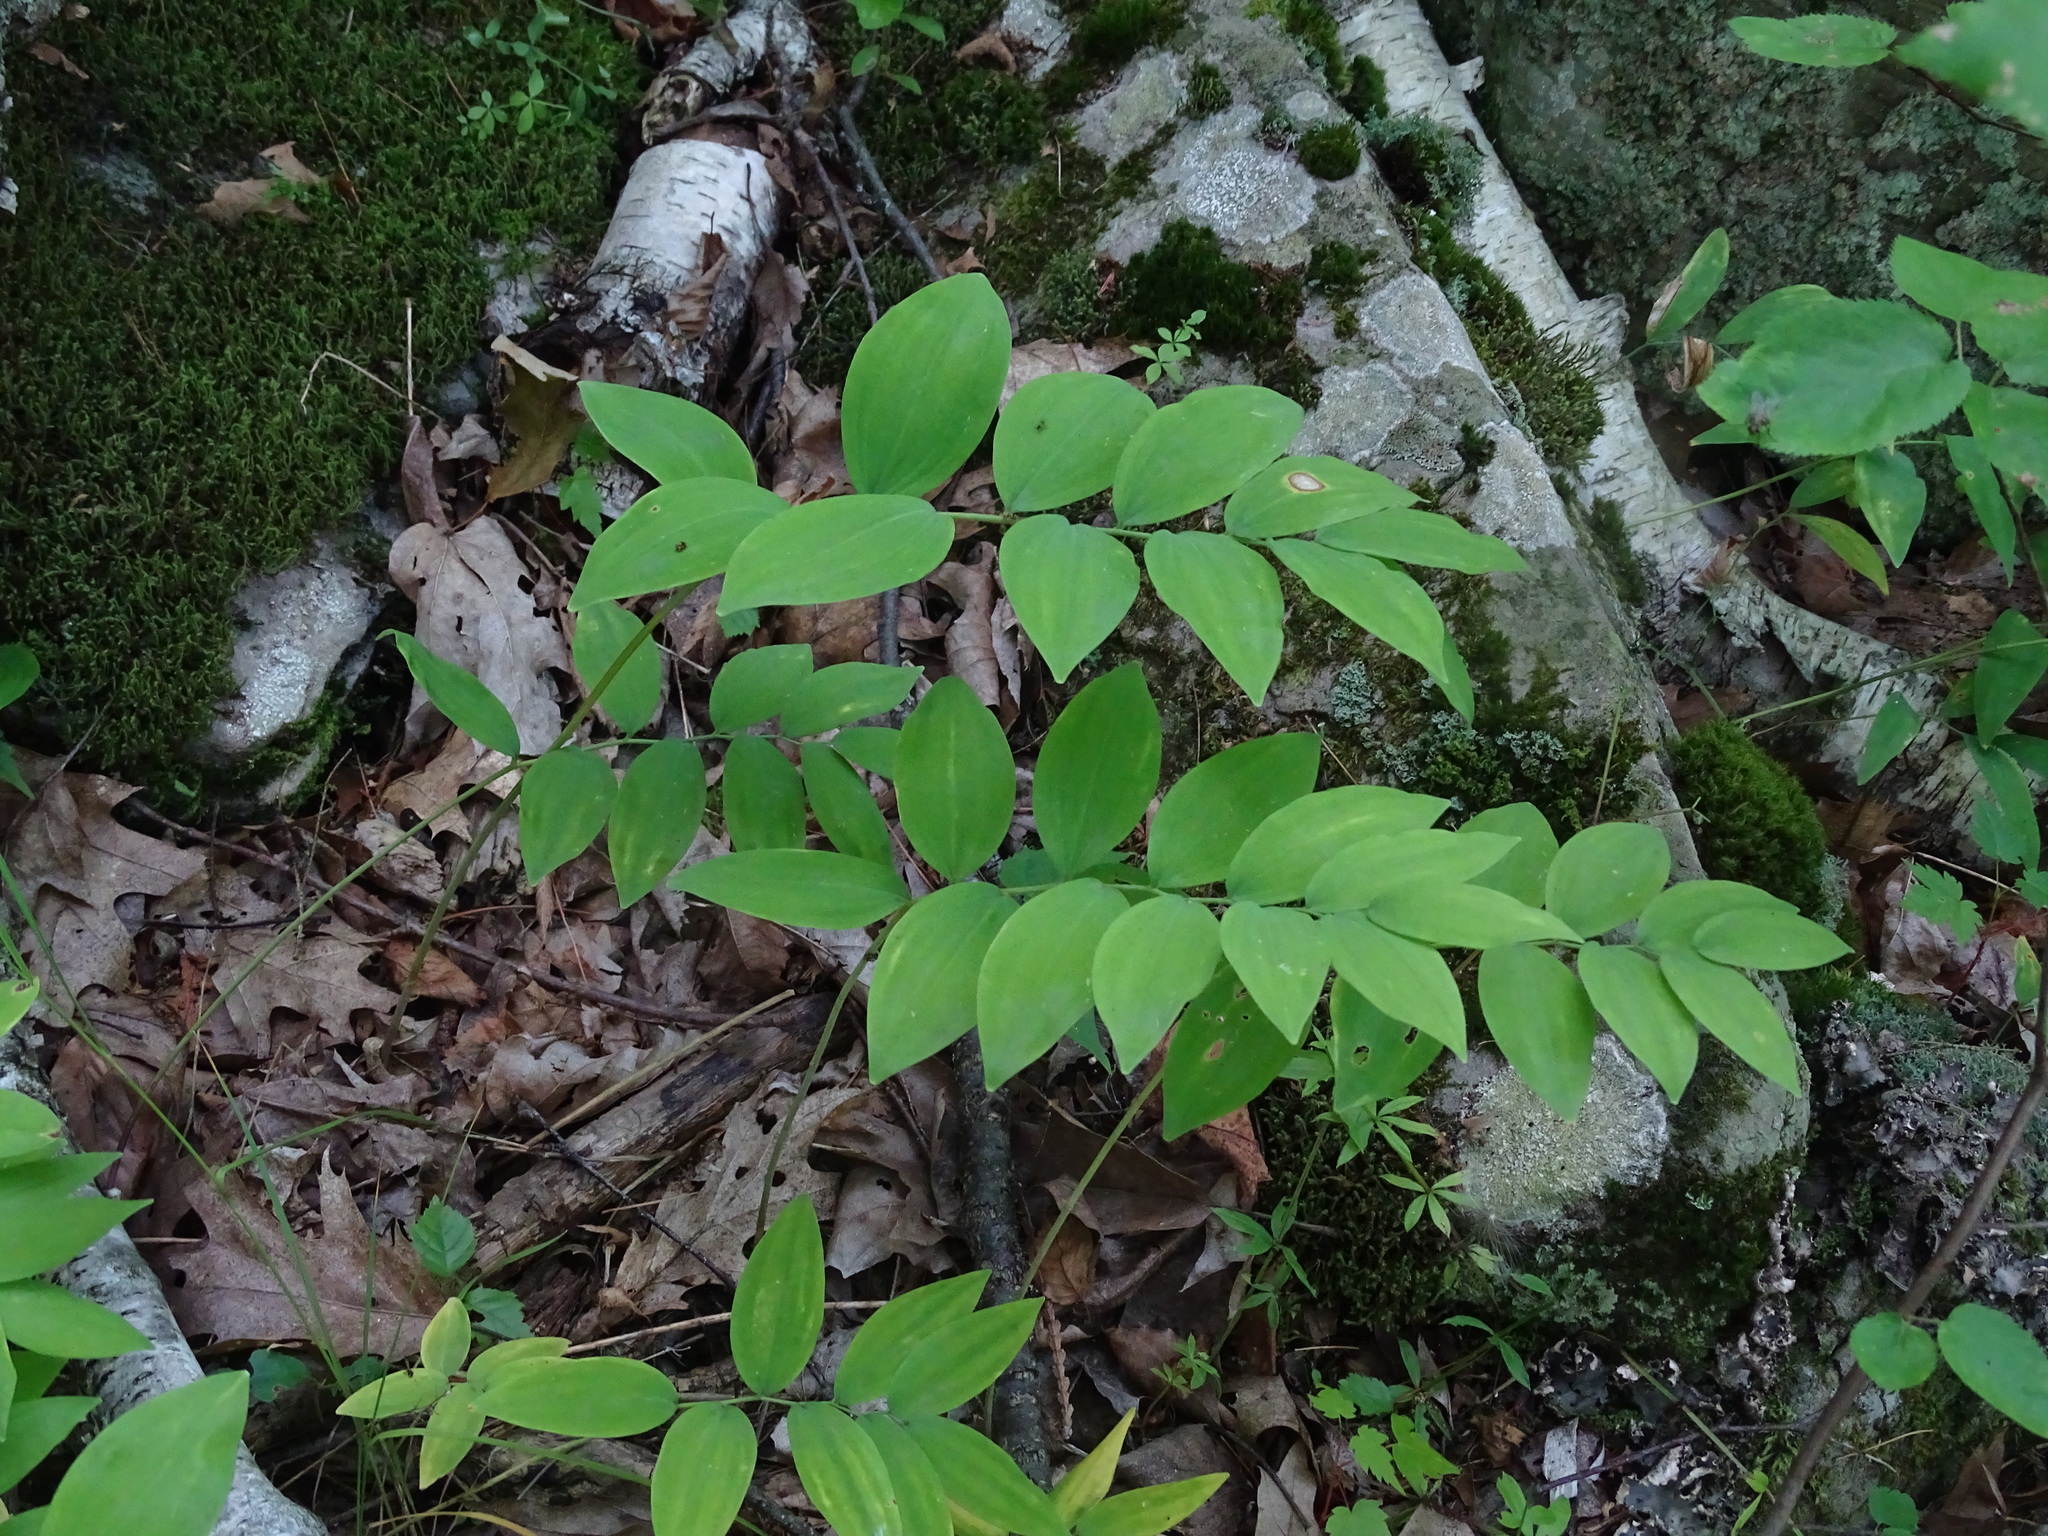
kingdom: Plantae
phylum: Tracheophyta
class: Liliopsida
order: Asparagales
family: Asparagaceae
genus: Polygonatum
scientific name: Polygonatum pubescens
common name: Downy solomon's seal
